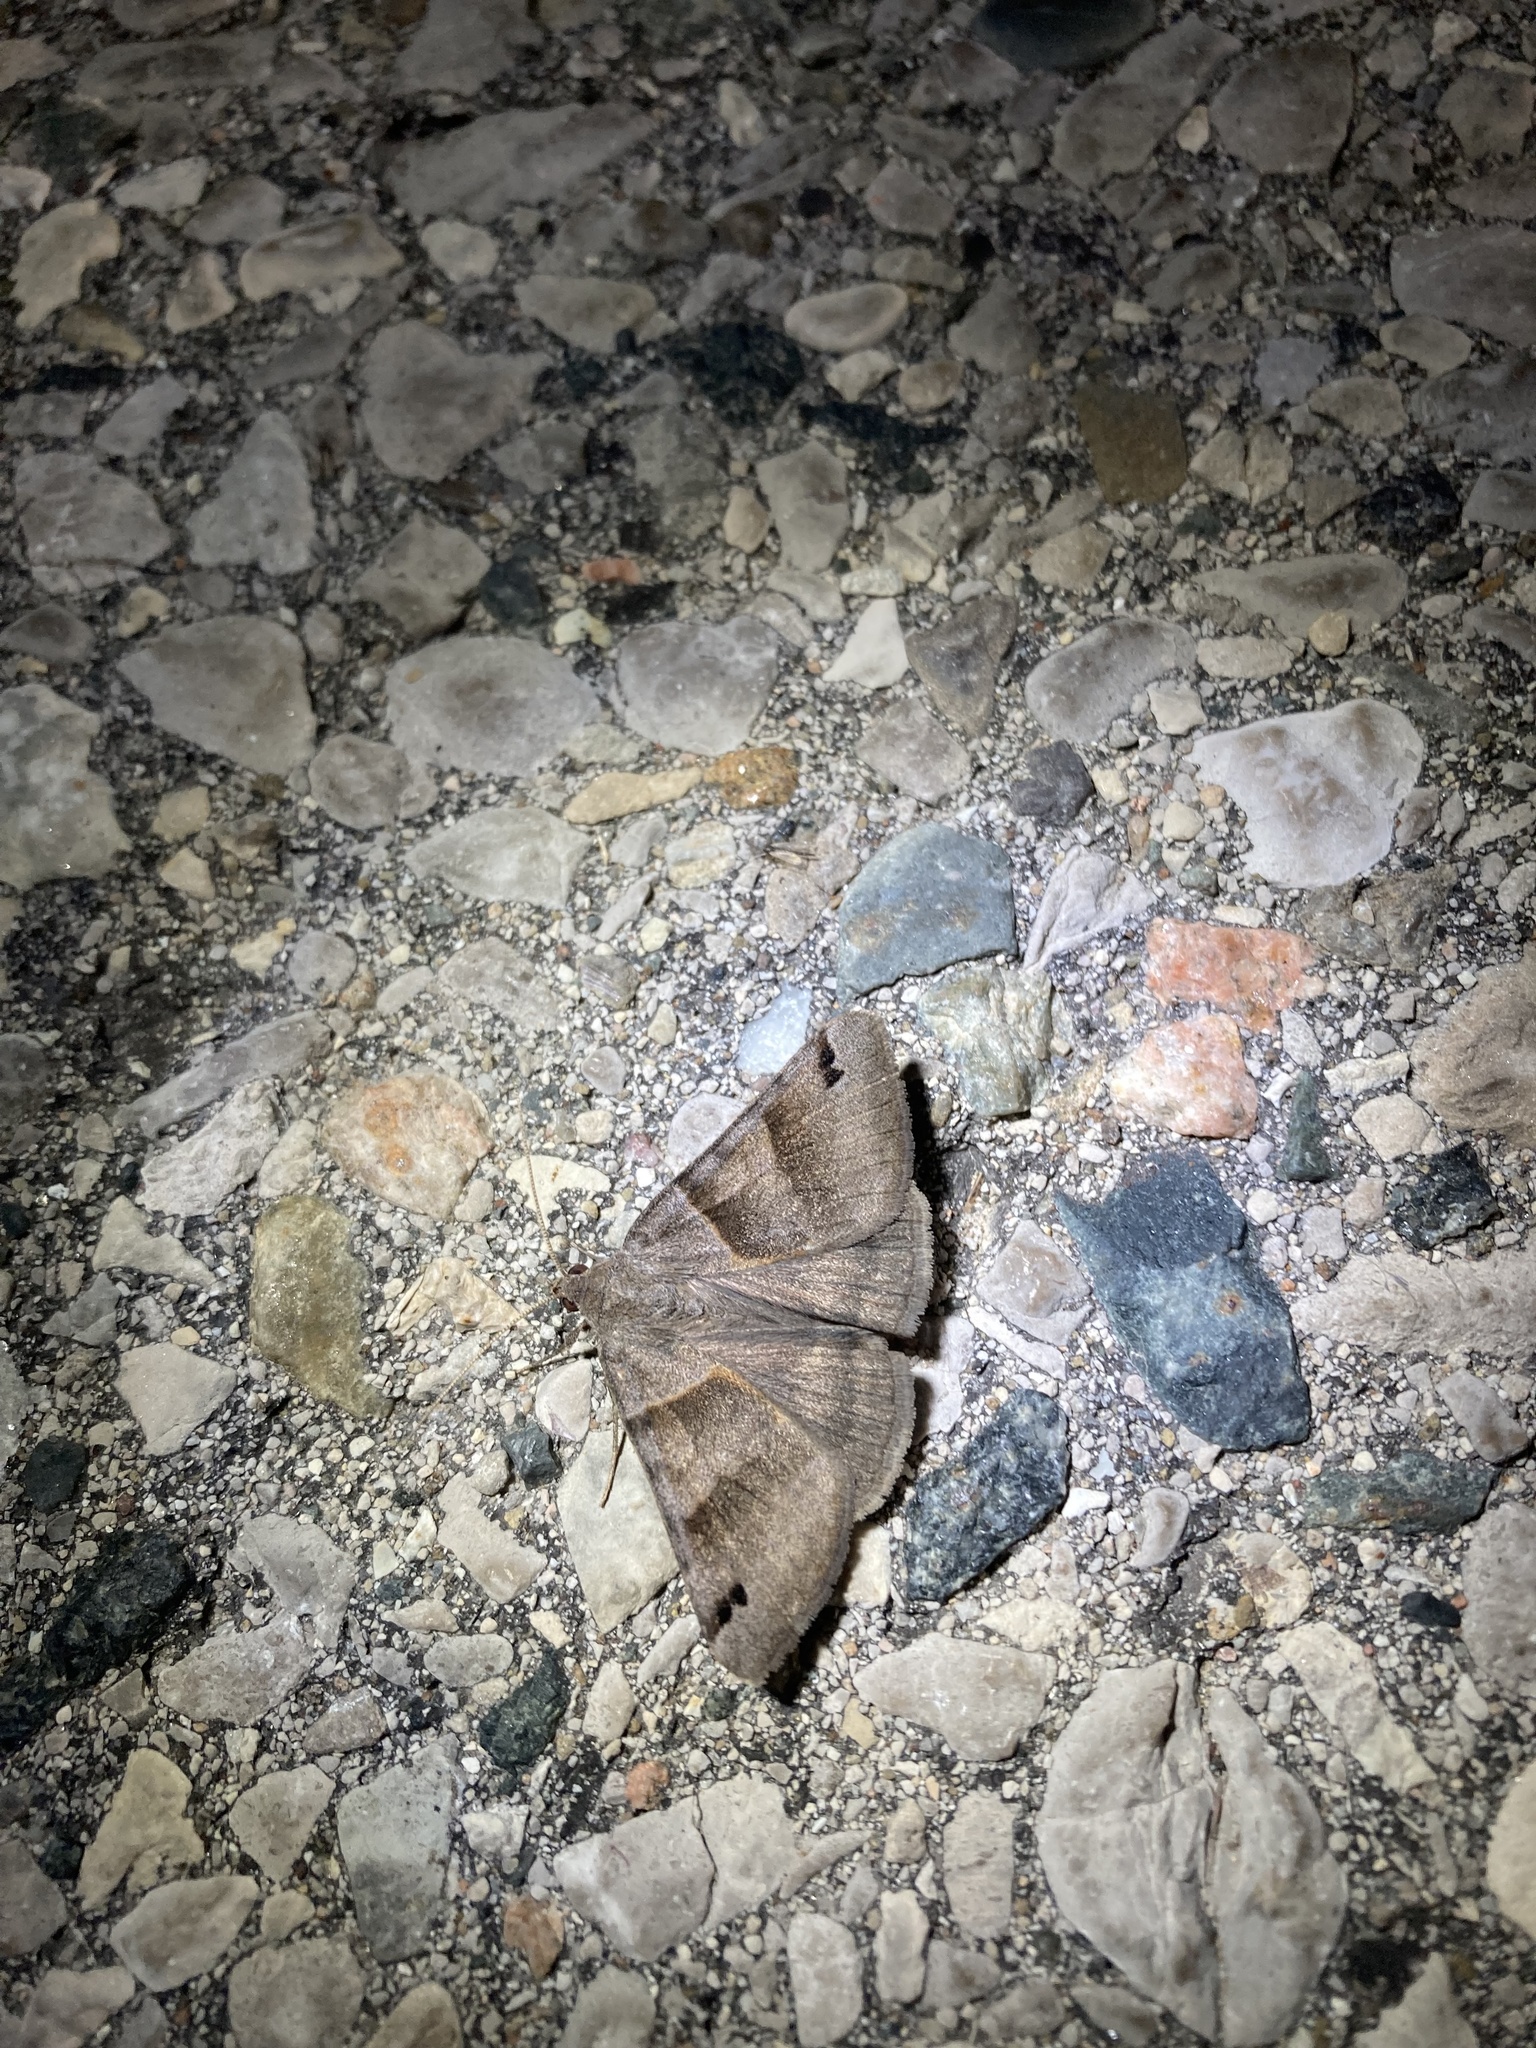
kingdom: Animalia
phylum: Arthropoda
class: Insecta
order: Lepidoptera
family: Erebidae
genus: Caenurgina
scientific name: Caenurgina erechtea
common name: Forage looper moth
